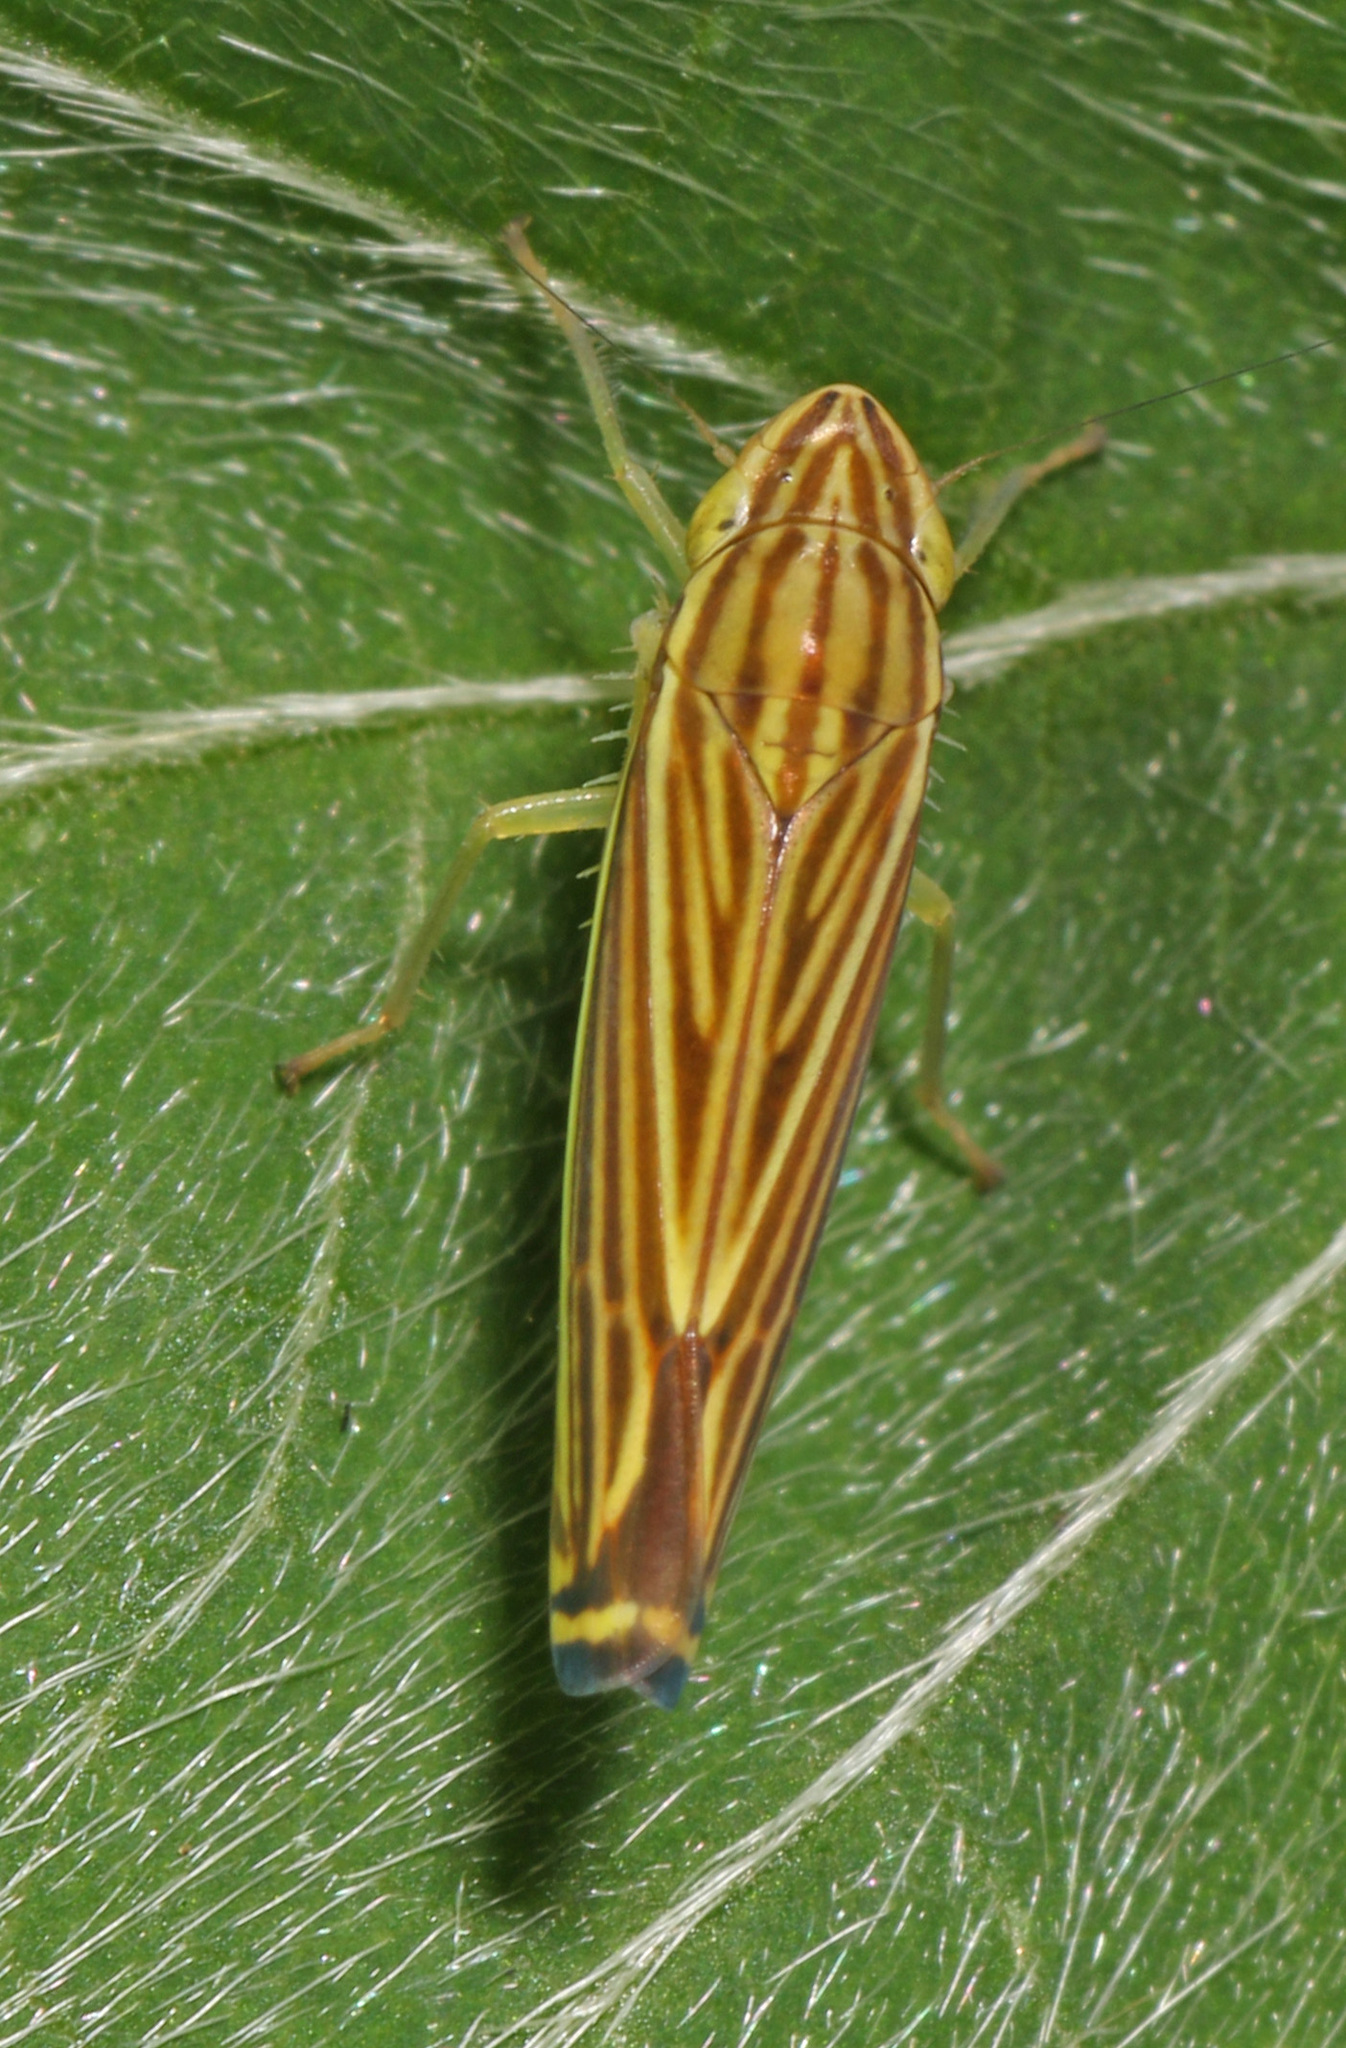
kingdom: Animalia
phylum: Arthropoda
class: Insecta
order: Hemiptera
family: Cicadellidae
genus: Sibovia
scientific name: Sibovia occatoria
